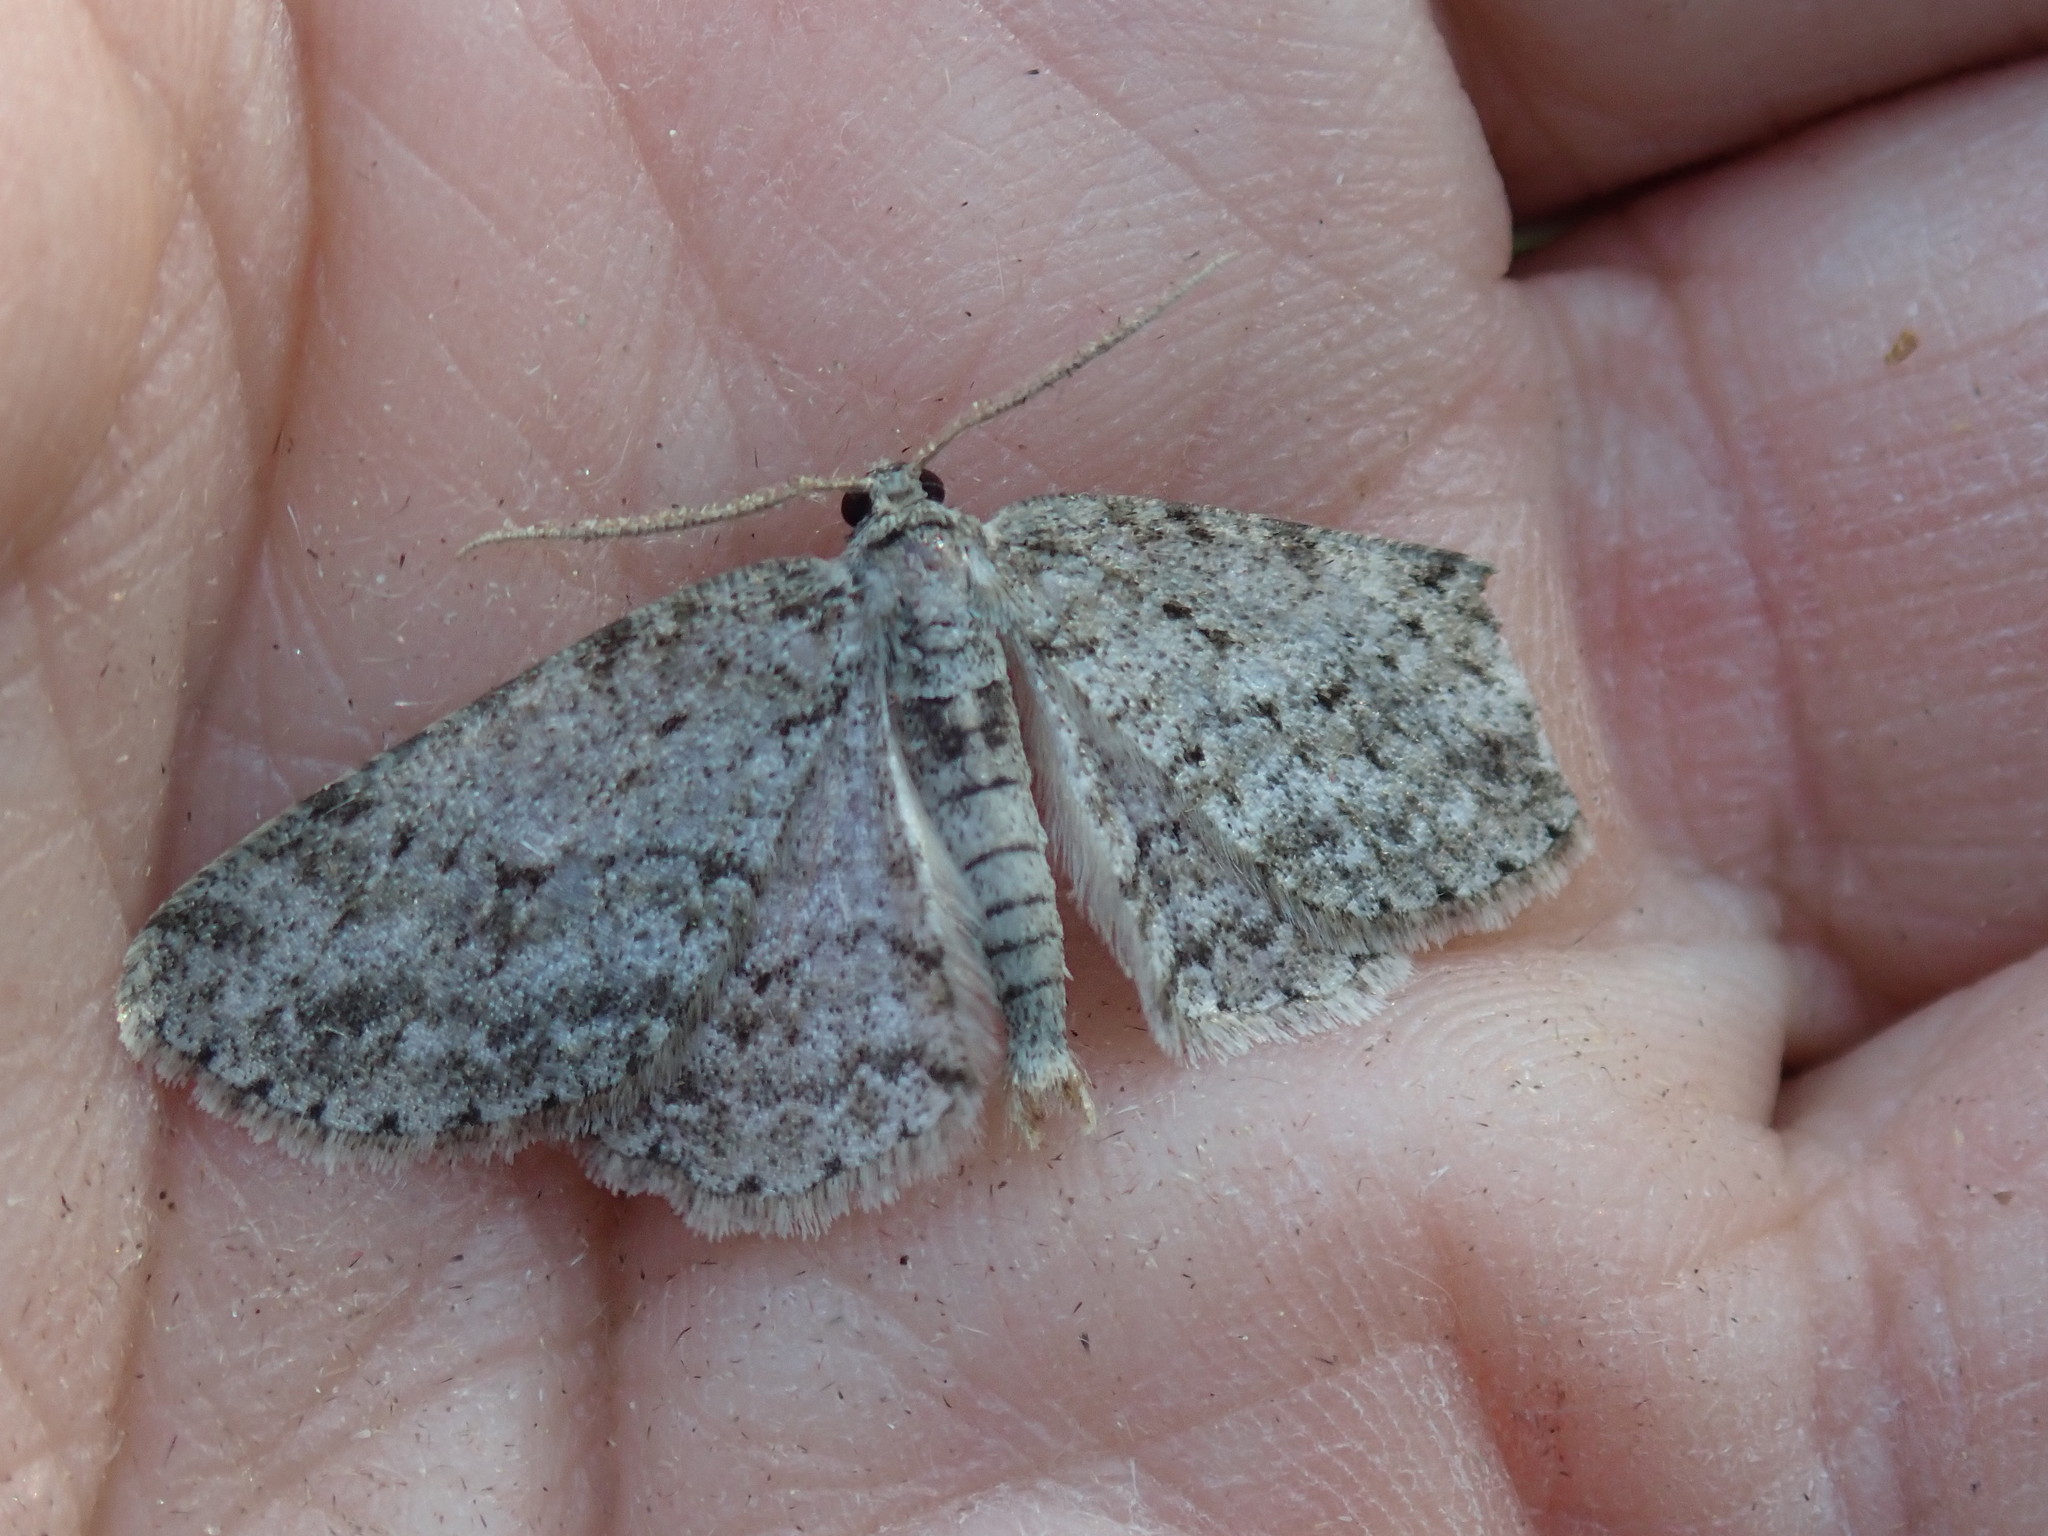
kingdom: Animalia
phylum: Arthropoda
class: Insecta
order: Lepidoptera
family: Geometridae
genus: Ectropis
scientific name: Ectropis crepuscularia
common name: Engrailed
